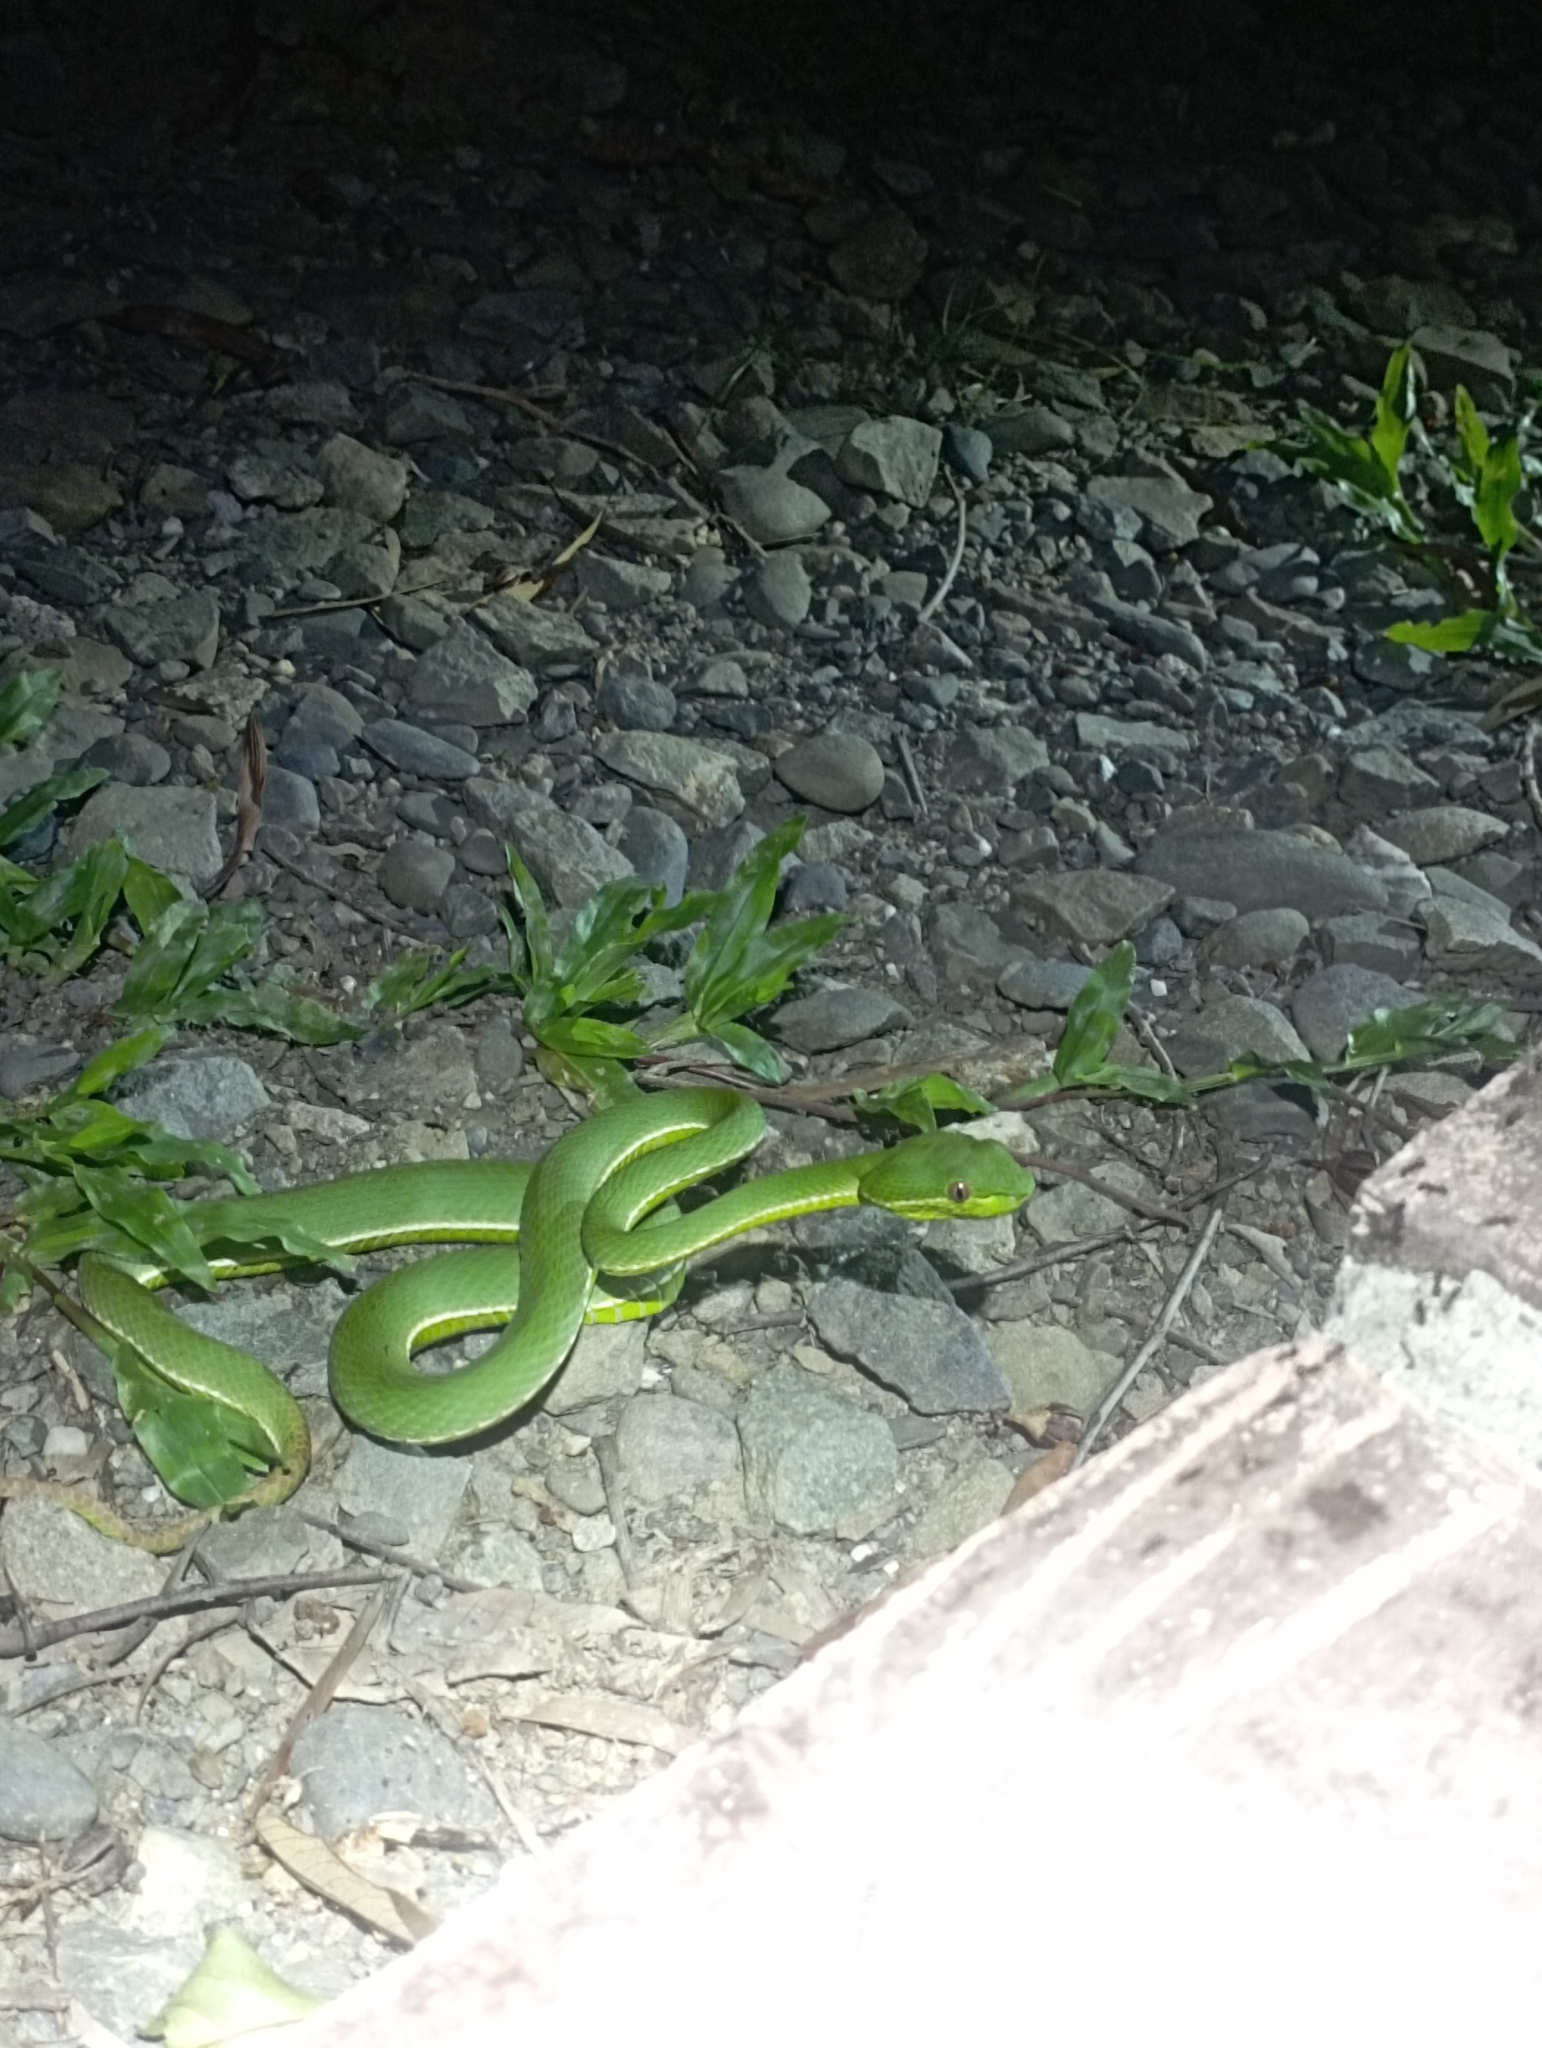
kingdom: Animalia
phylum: Chordata
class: Squamata
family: Viperidae
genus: Trimeresurus
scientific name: Trimeresurus stejnegeri
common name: Chen’s bamboo pit viper
